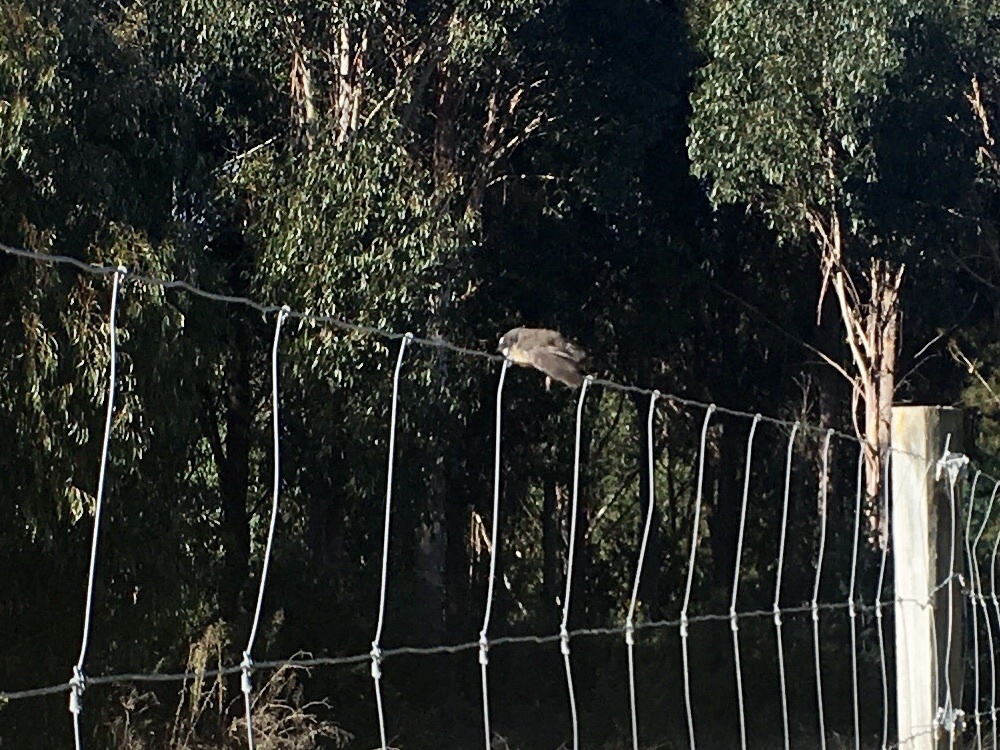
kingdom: Animalia
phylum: Chordata
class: Aves
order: Passeriformes
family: Rhipiduridae
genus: Rhipidura
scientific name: Rhipidura fuliginosa
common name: New zealand fantail
